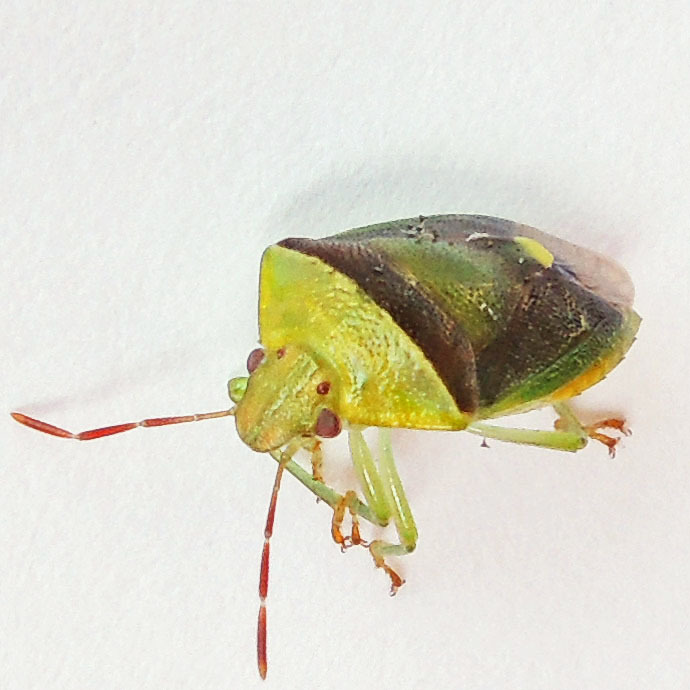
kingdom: Animalia
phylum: Arthropoda
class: Insecta
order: Hemiptera
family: Pentatomidae
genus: Banasa
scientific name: Banasa dimidiata
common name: Green burgundy stink bug
